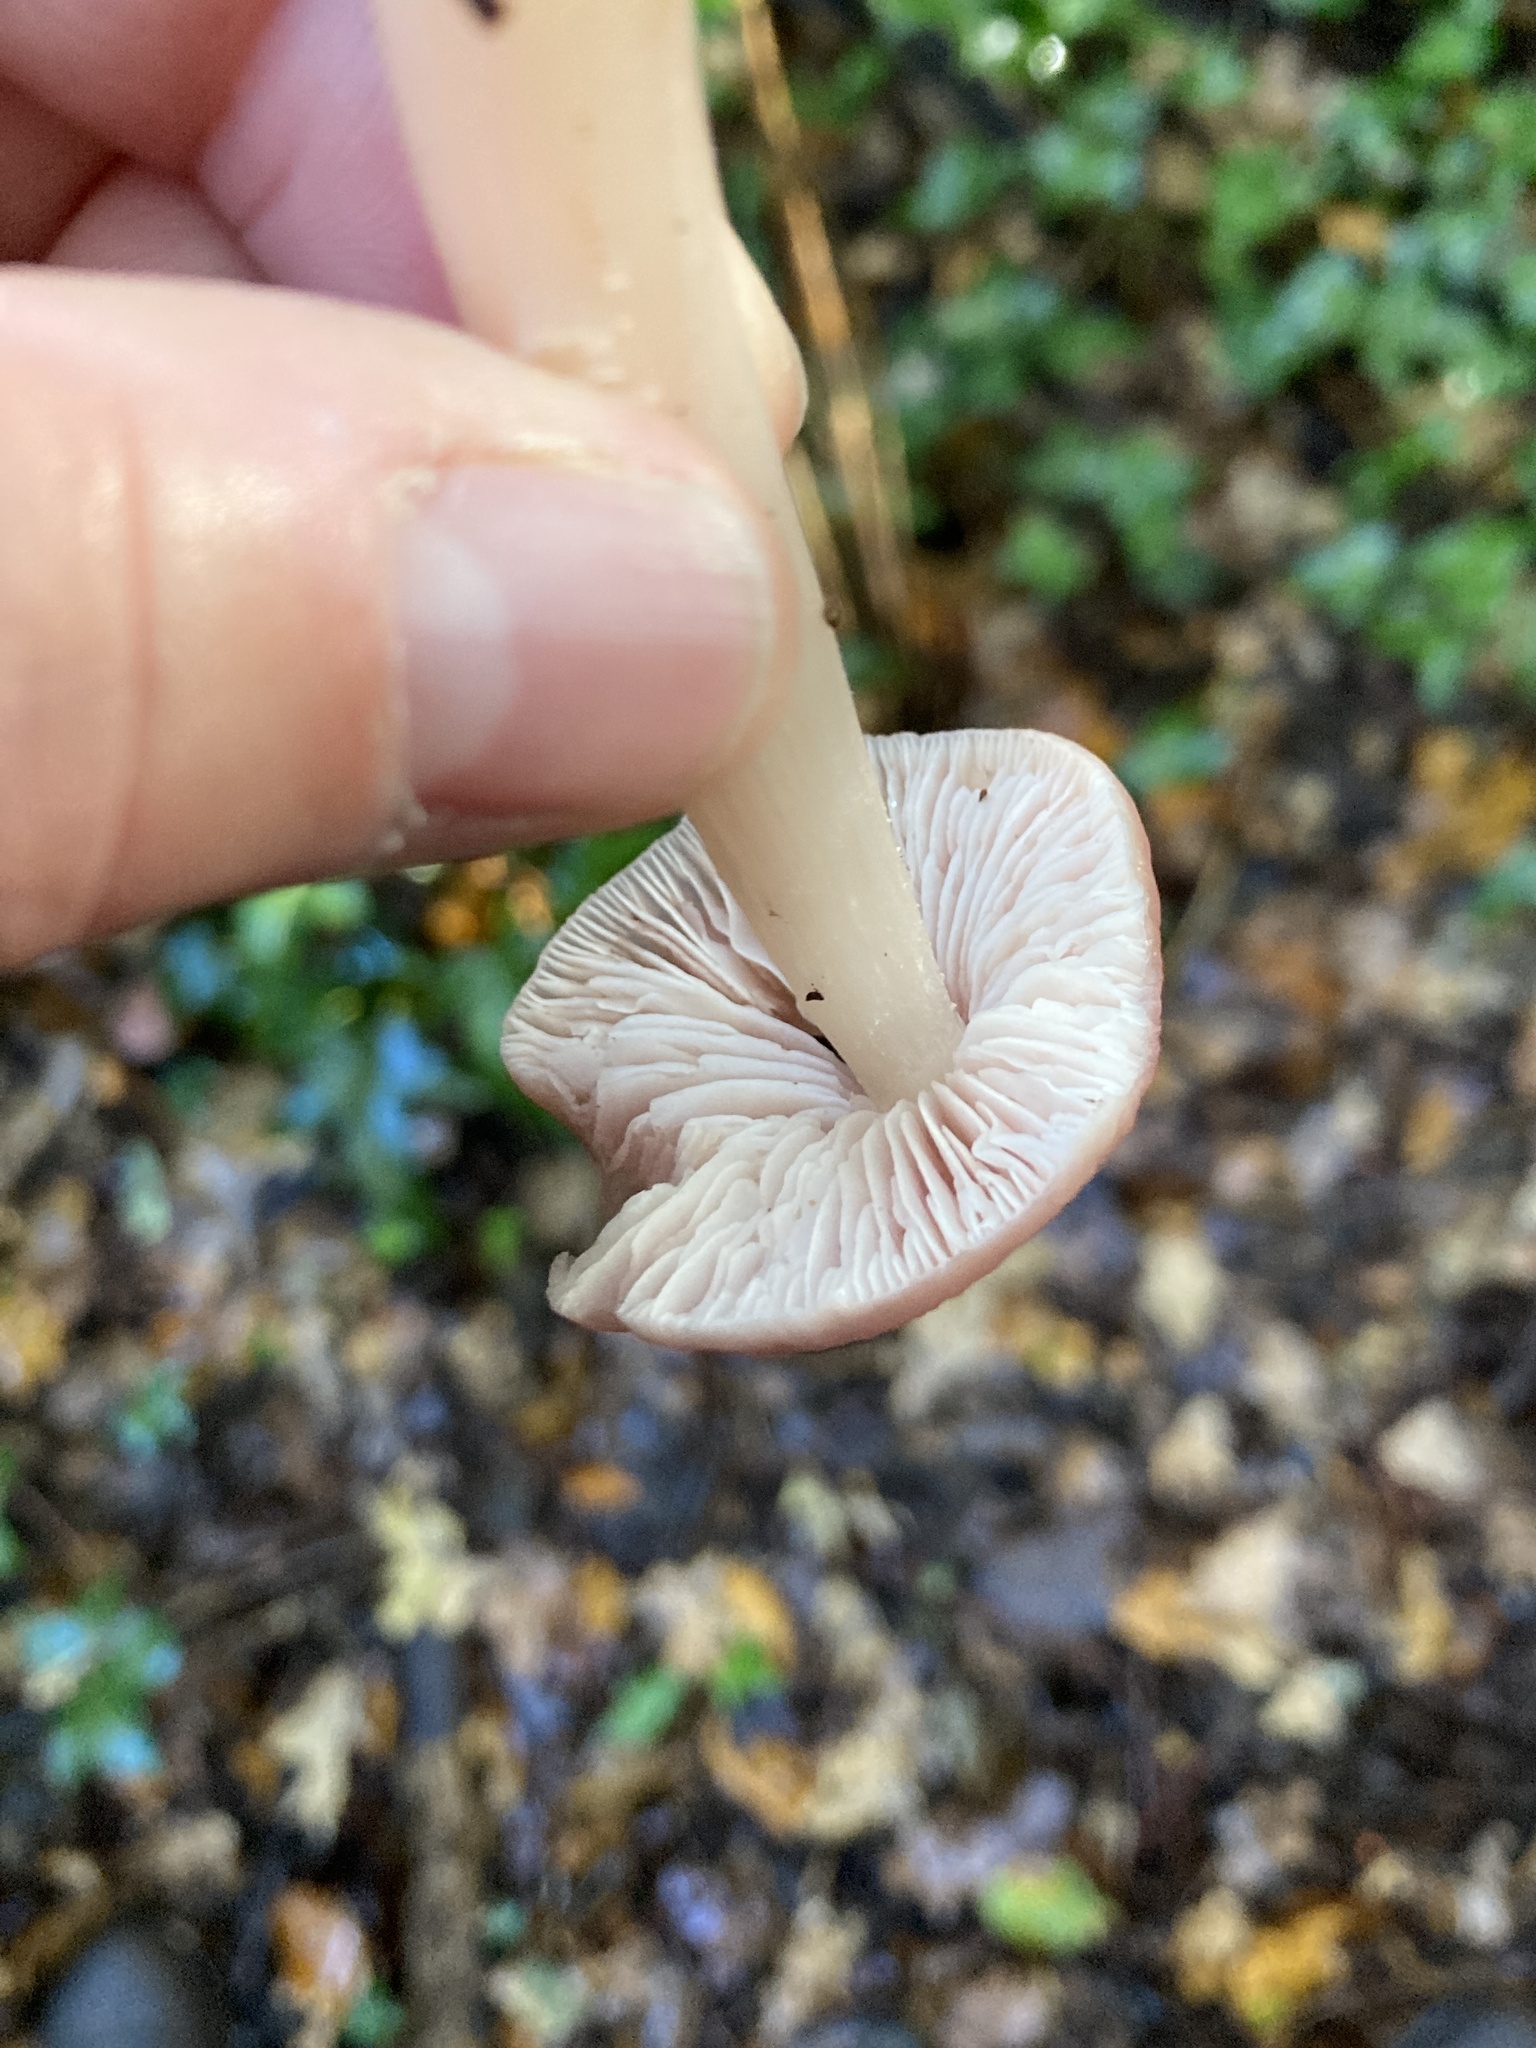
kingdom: Fungi
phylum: Basidiomycota
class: Agaricomycetes
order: Agaricales
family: Mycenaceae
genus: Mycena
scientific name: Mycena rosea
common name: Rosy bonnet
